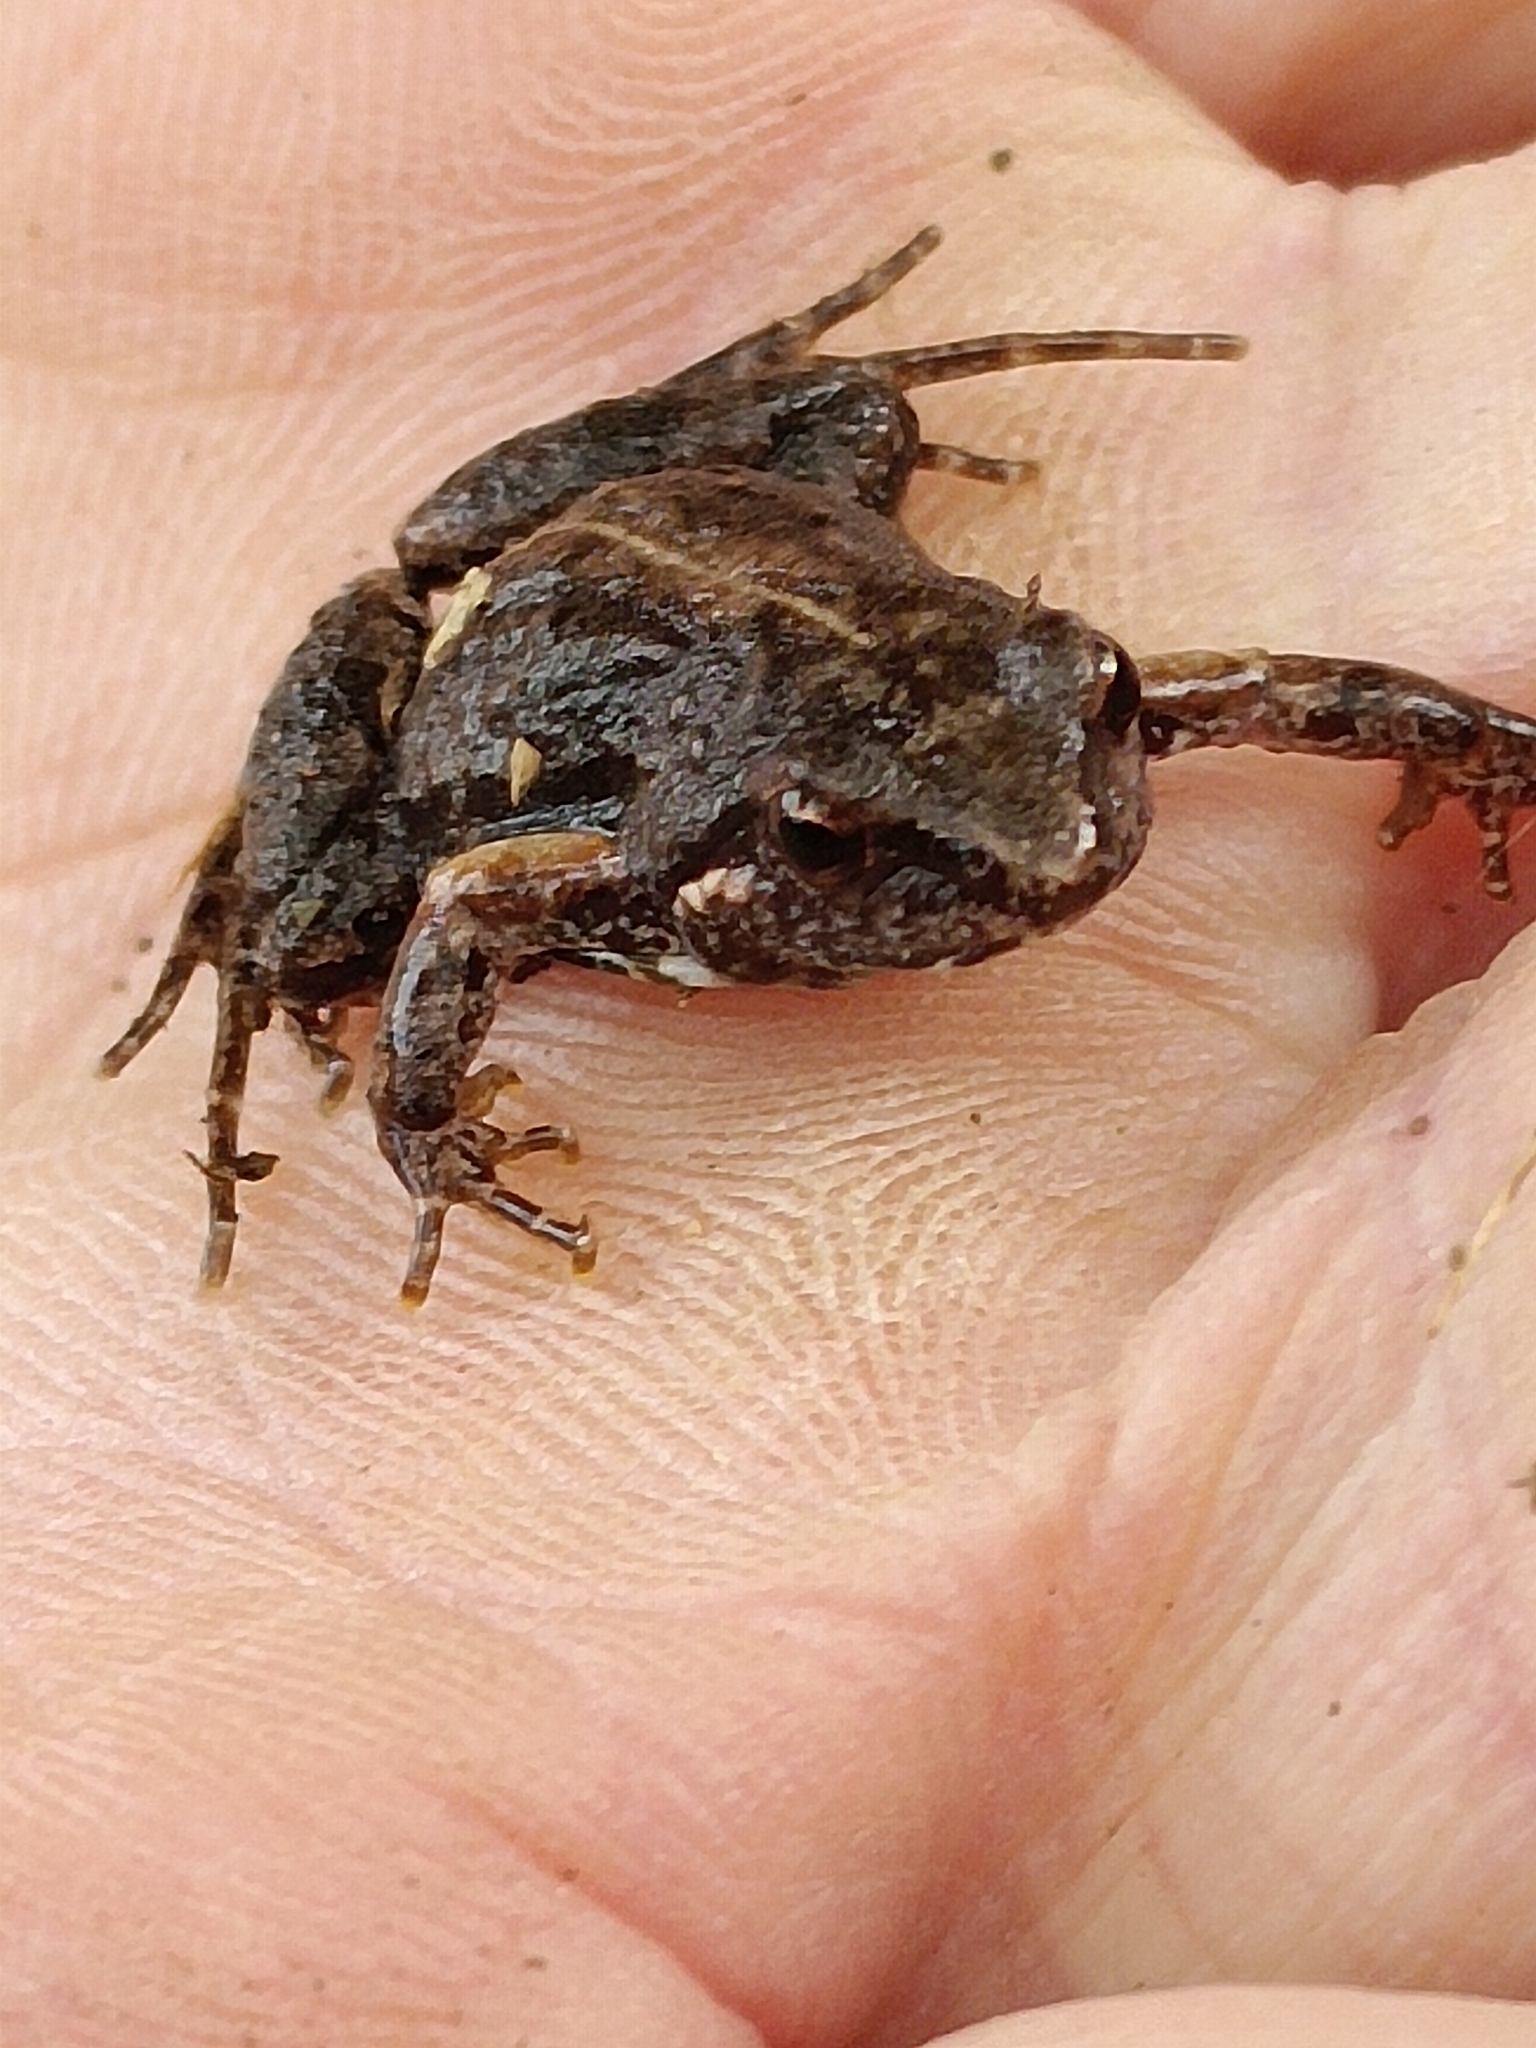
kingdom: Animalia
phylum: Chordata
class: Amphibia
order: Anura
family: Pyxicephalidae
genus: Cacosternum
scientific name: Cacosternum nanum
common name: Bronze dainty frog
